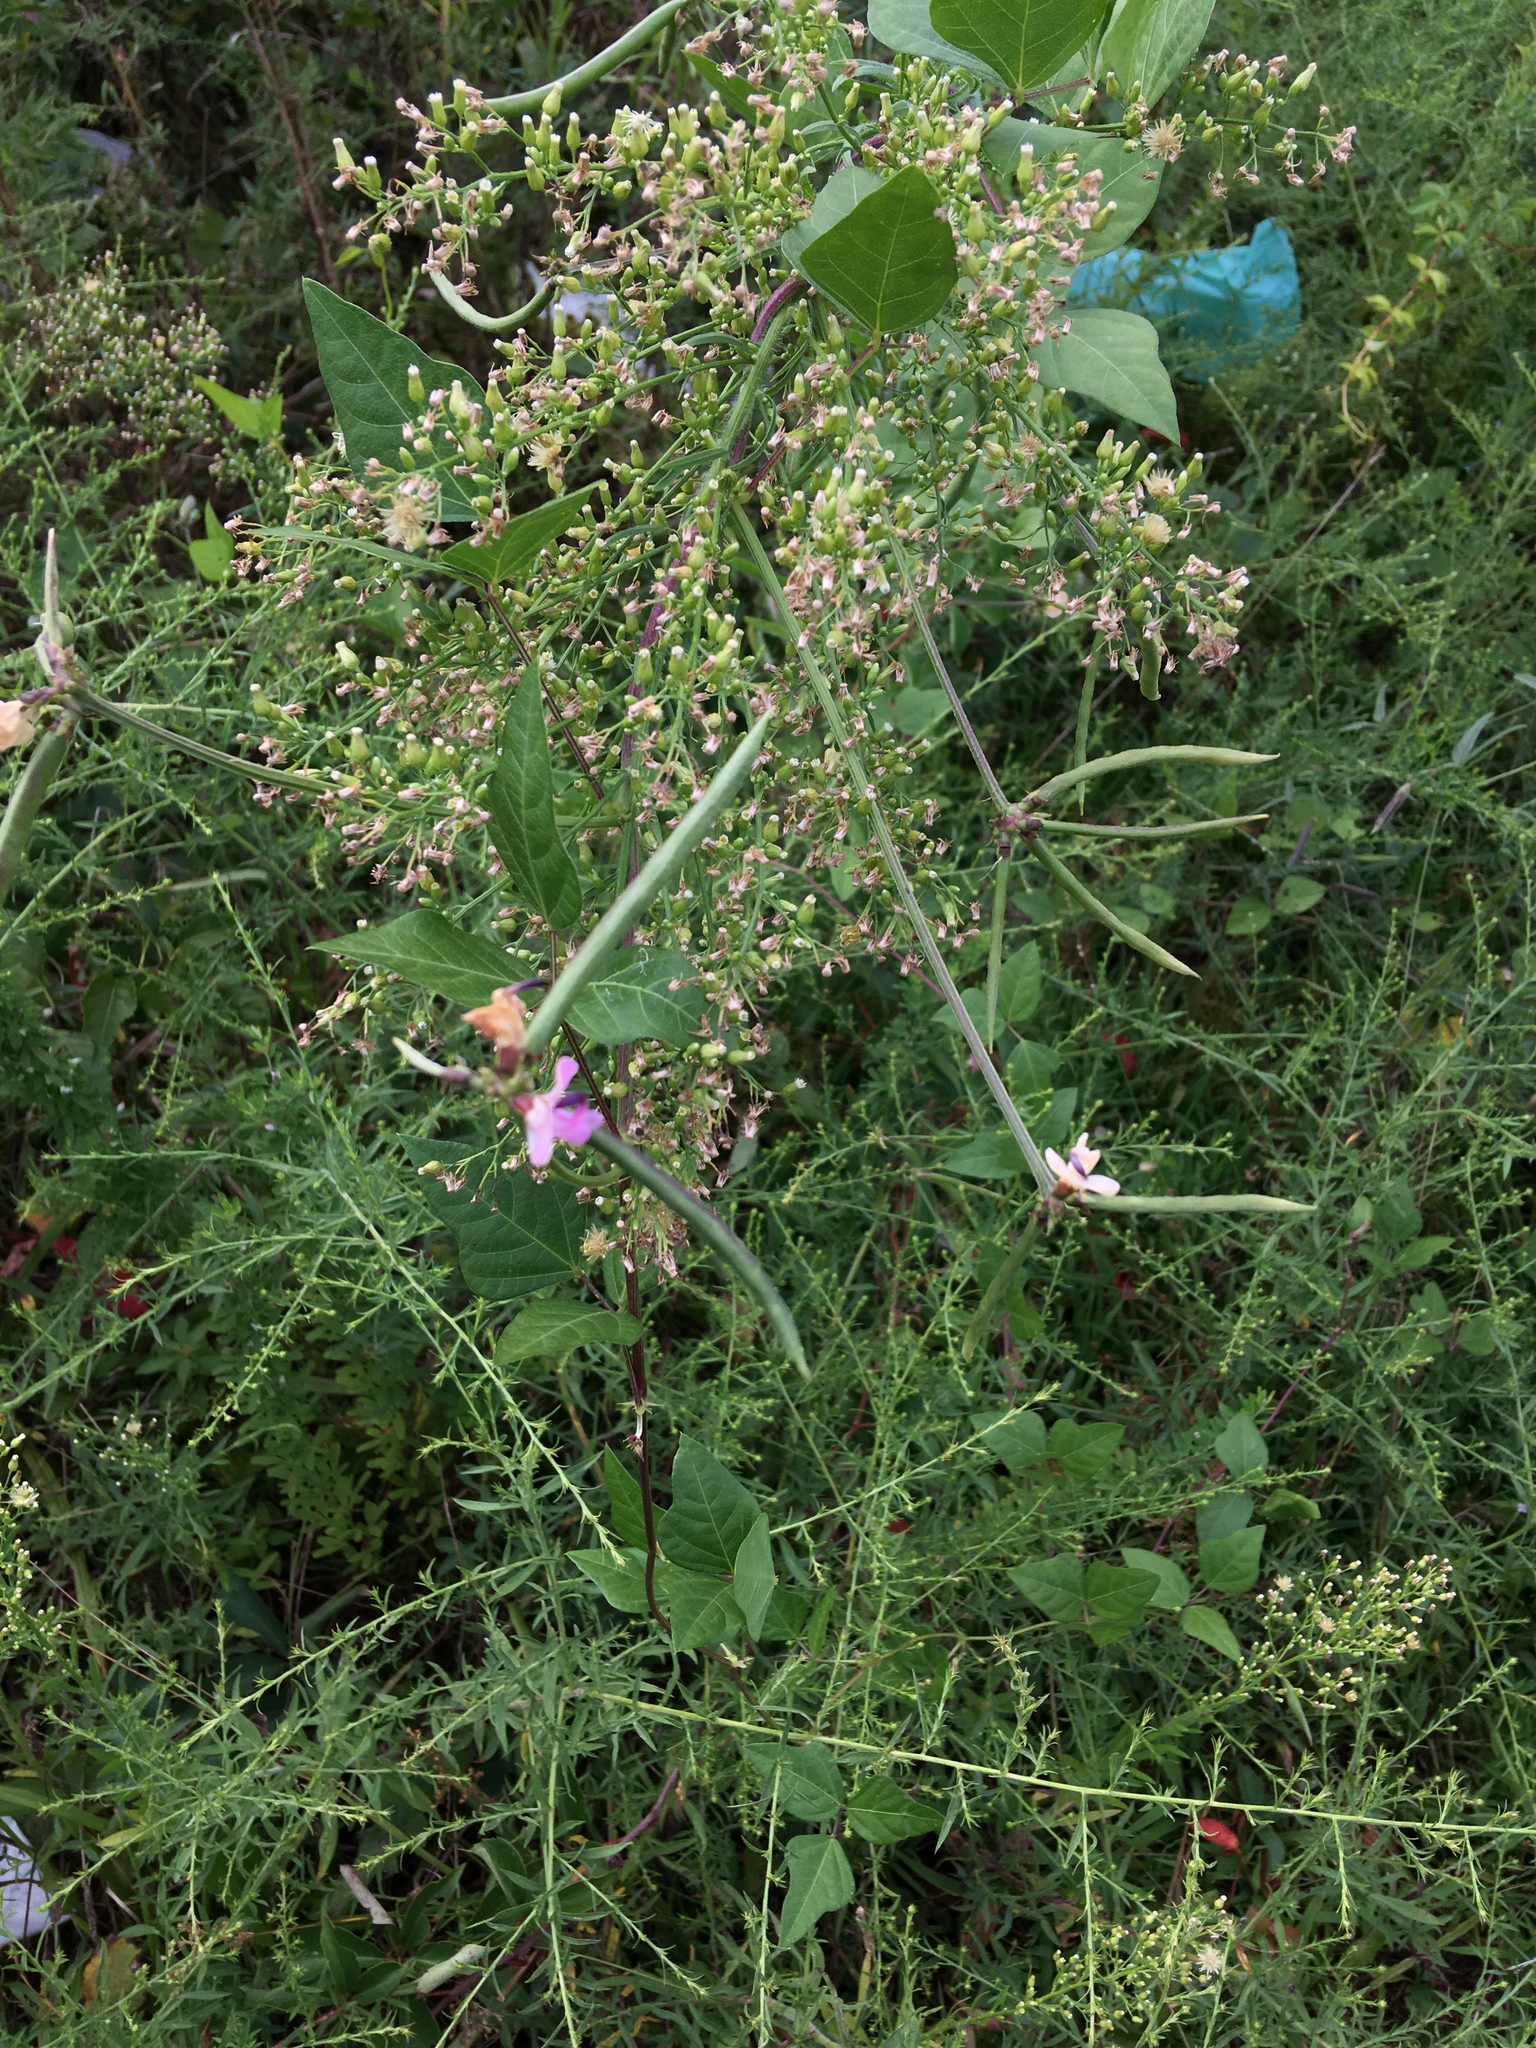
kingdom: Plantae
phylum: Tracheophyta
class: Magnoliopsida
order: Fabales
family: Fabaceae
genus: Strophostyles
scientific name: Strophostyles helvola
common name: Trailing wild bean
